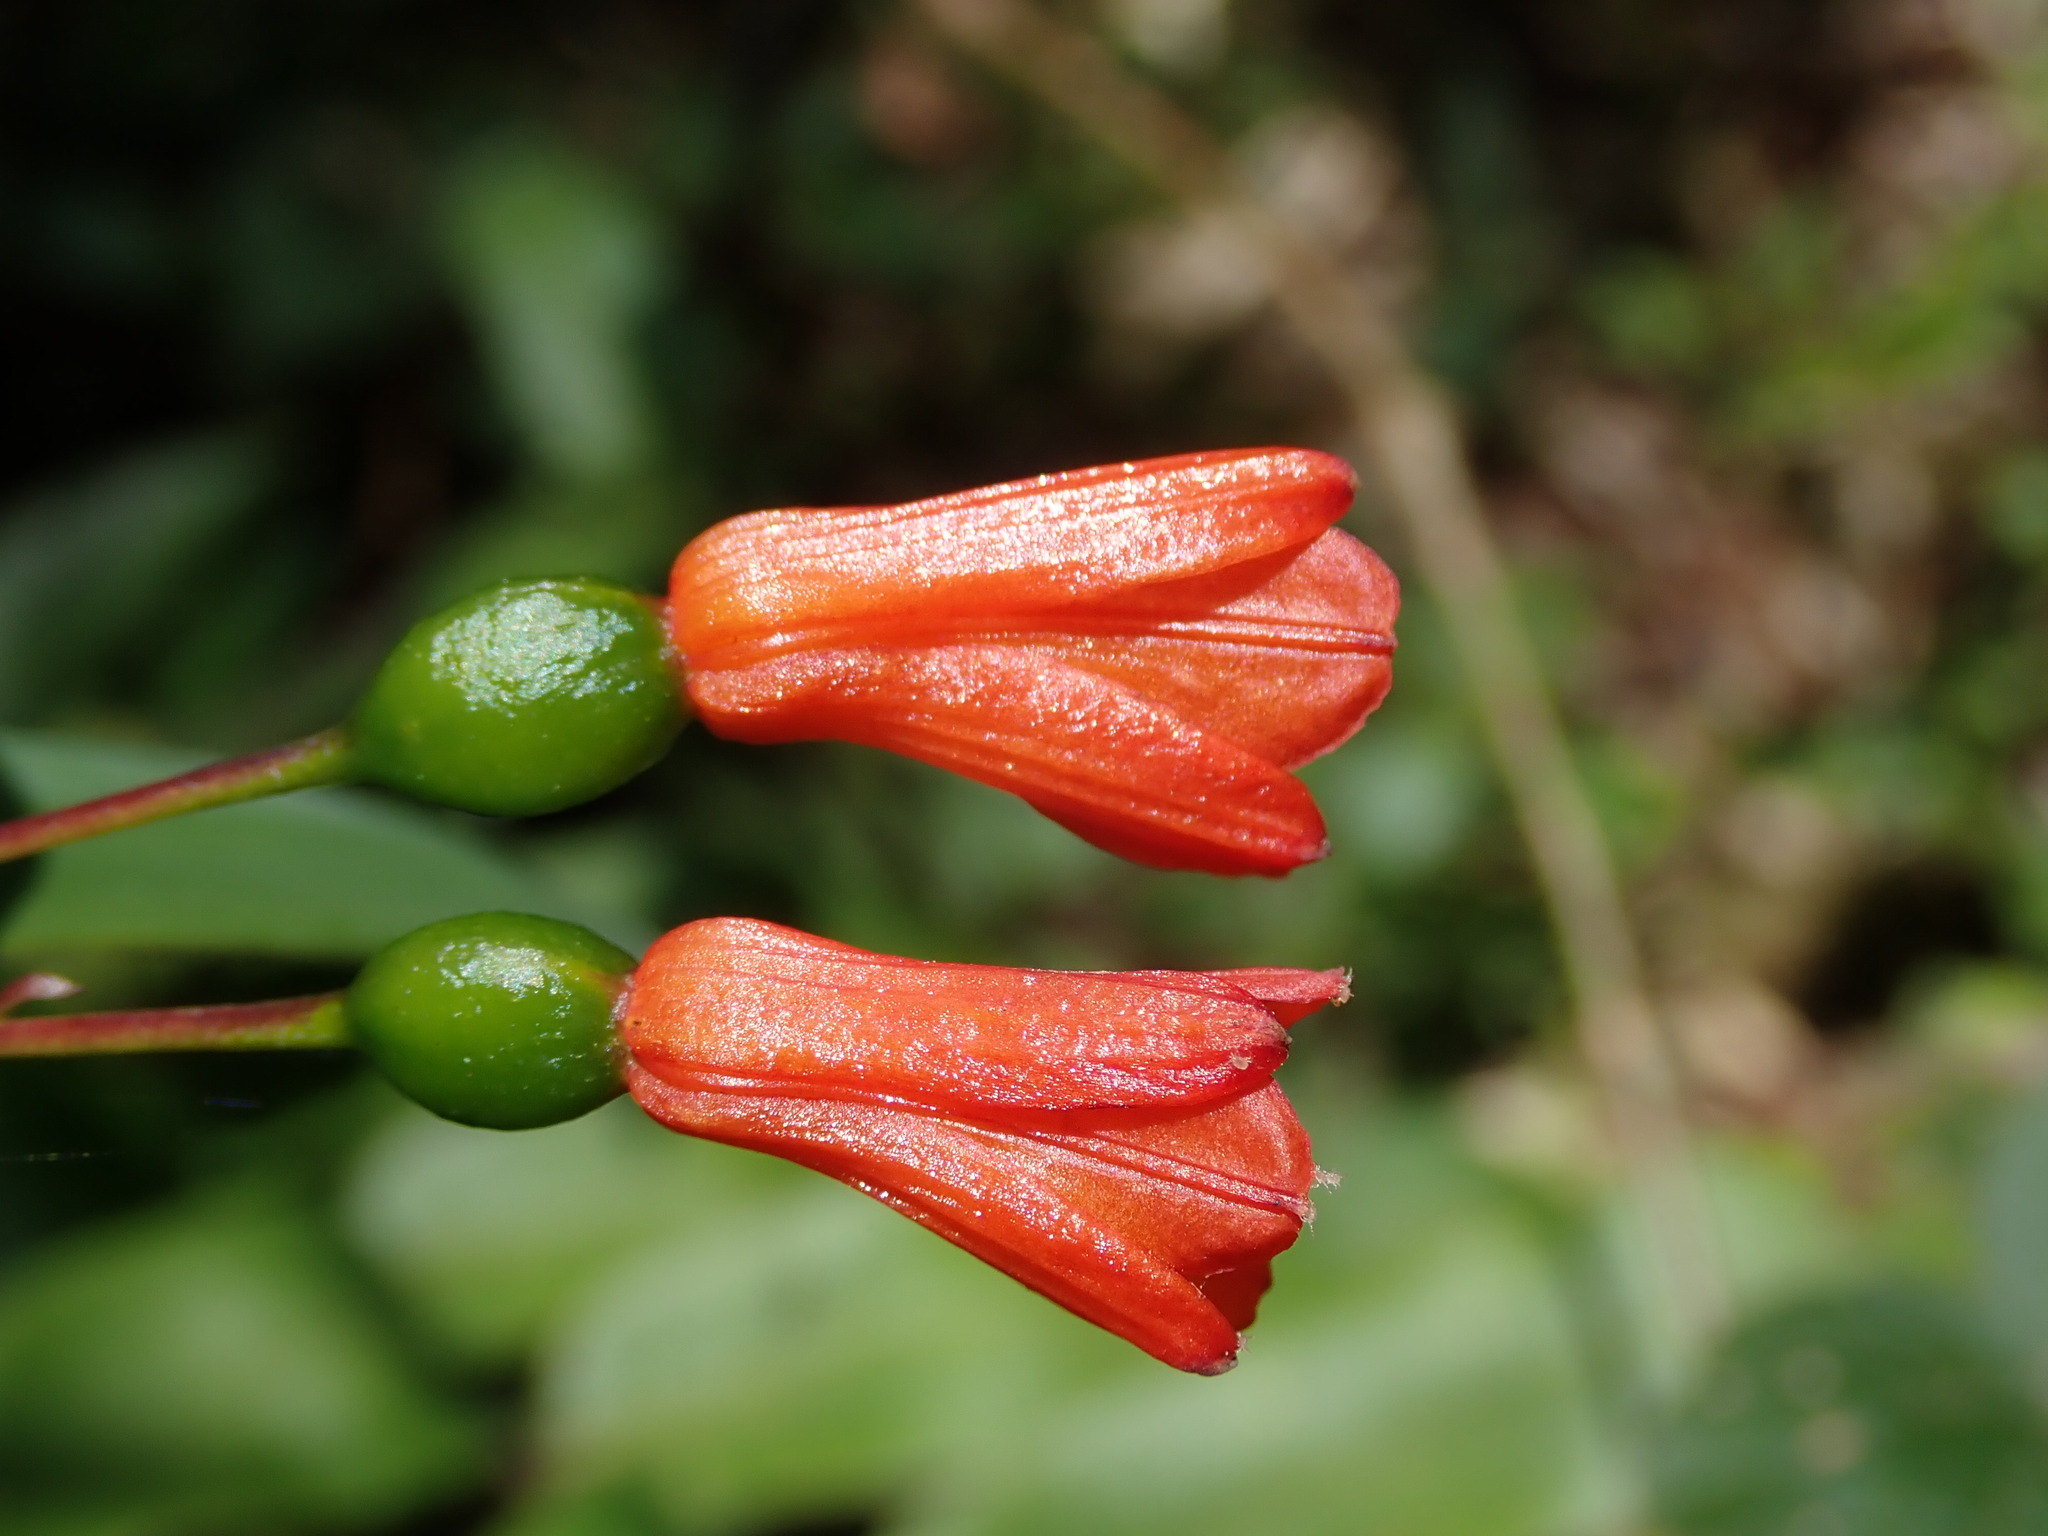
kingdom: Plantae
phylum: Tracheophyta
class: Liliopsida
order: Liliales
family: Alstroemeriaceae
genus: Bomarea
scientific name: Bomarea distichifolia
